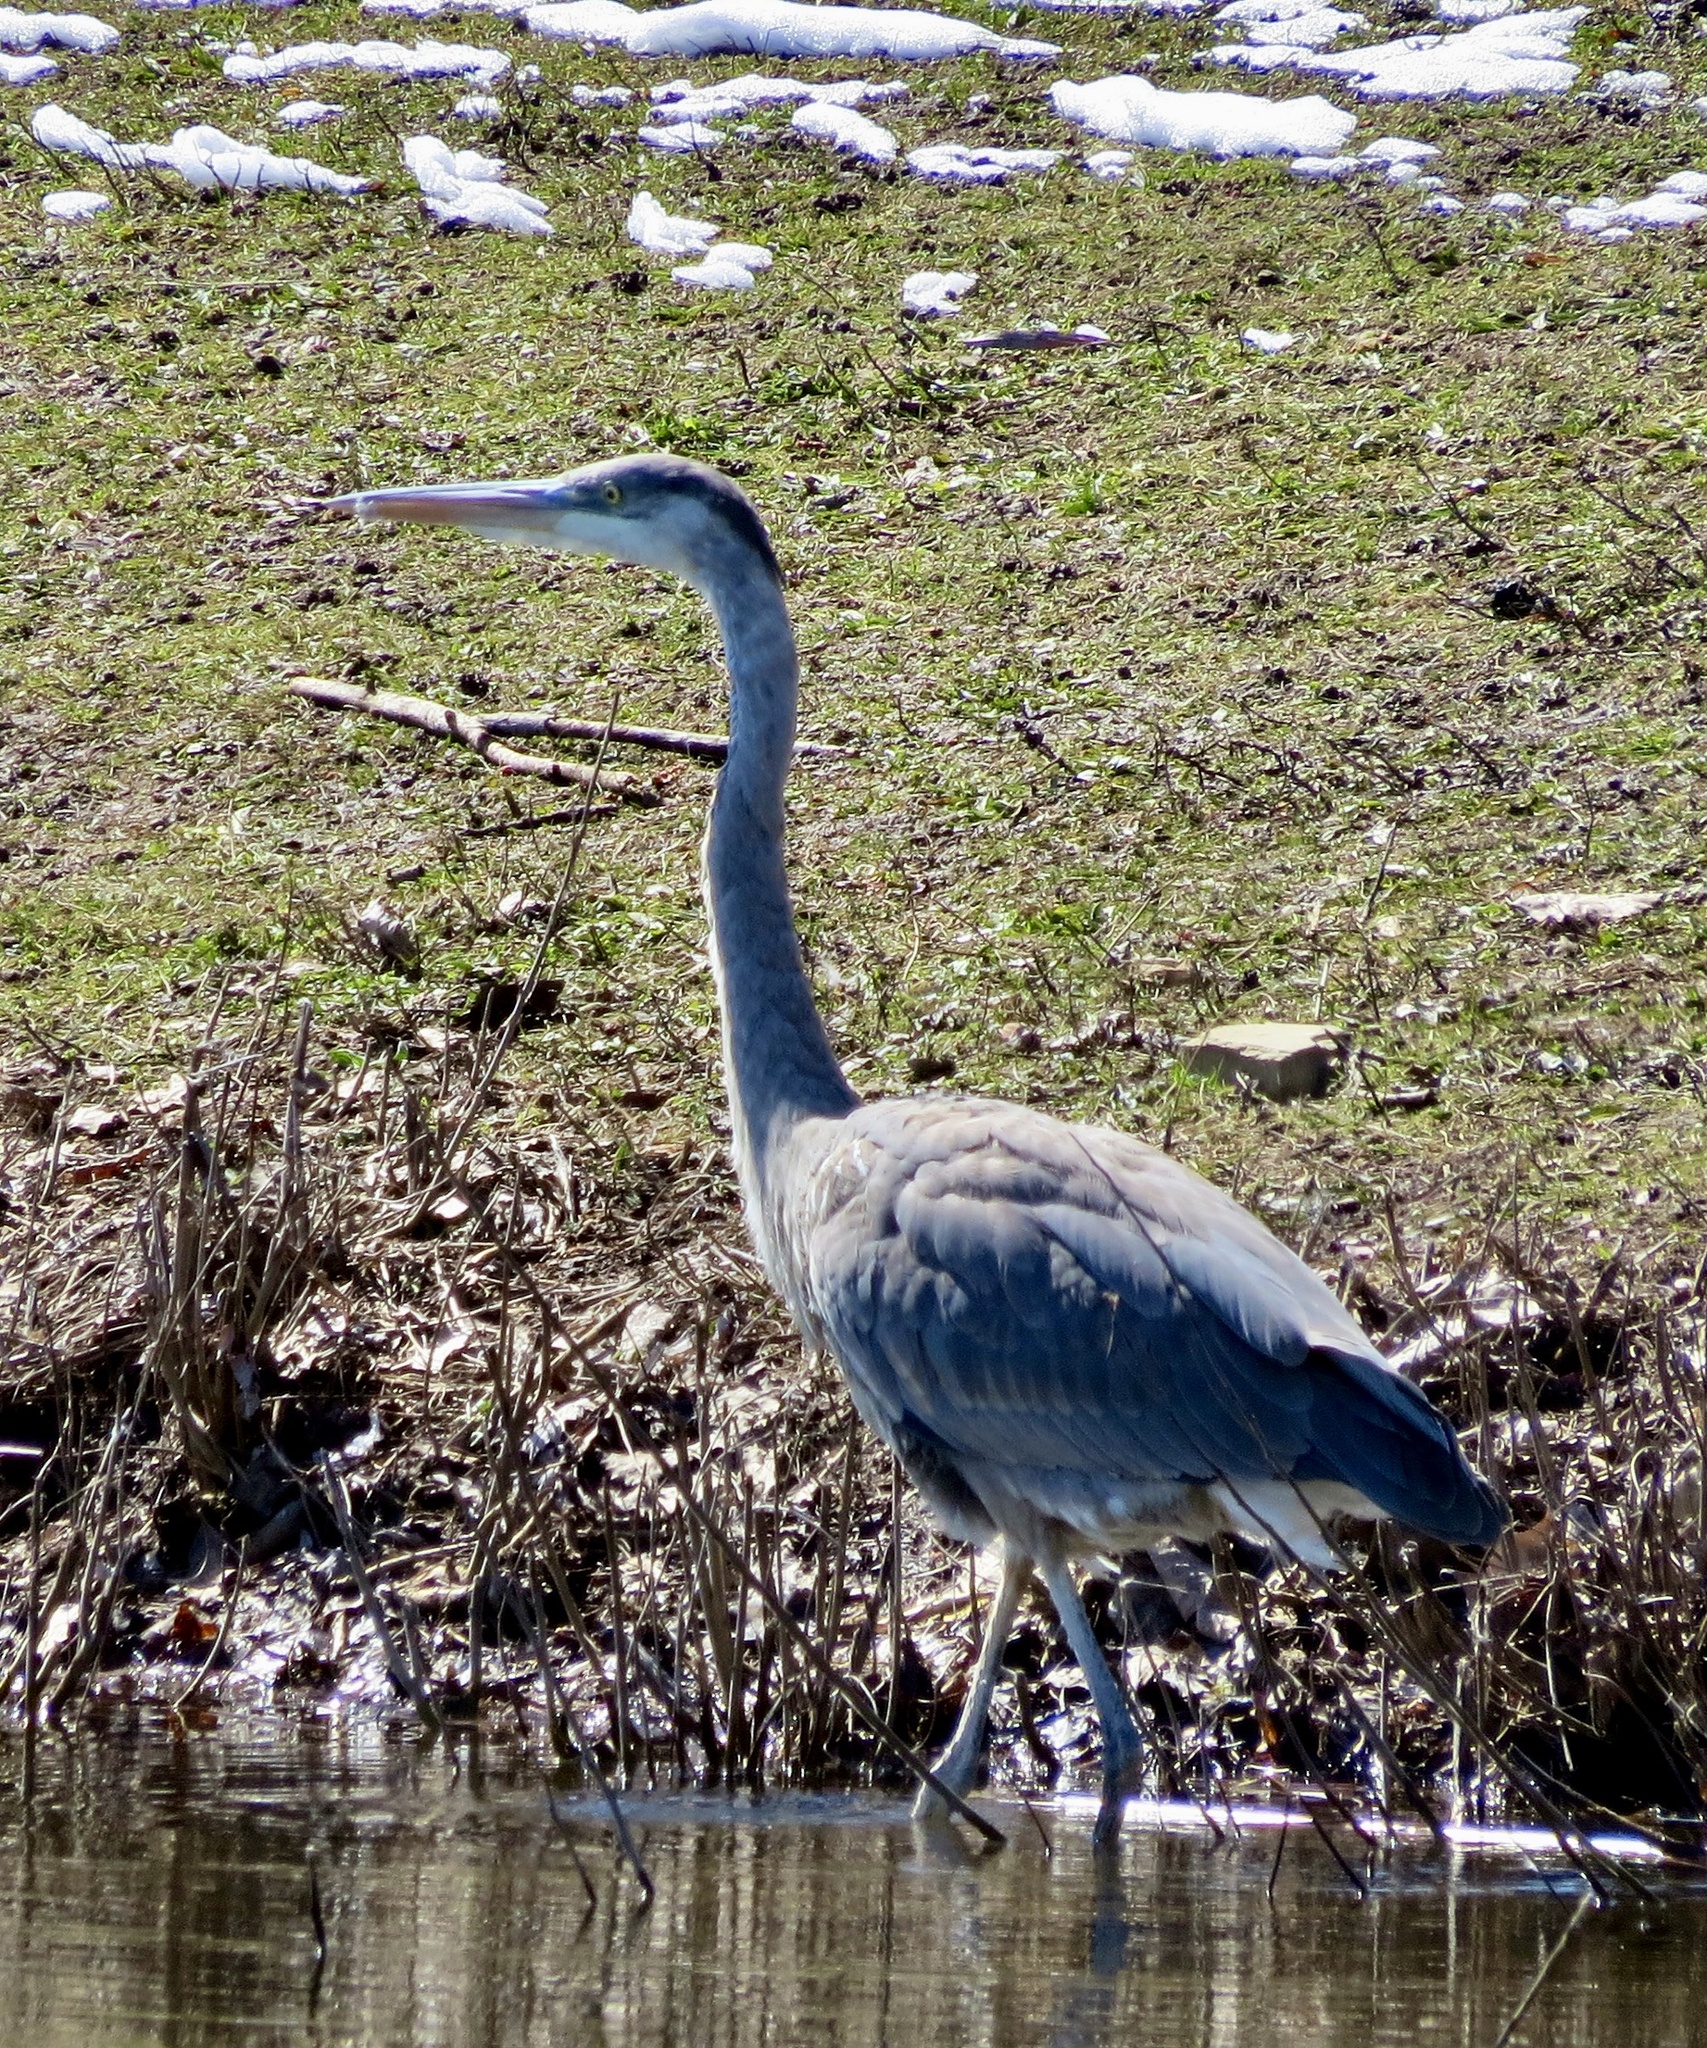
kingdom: Animalia
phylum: Chordata
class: Aves
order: Pelecaniformes
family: Ardeidae
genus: Ardea
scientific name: Ardea herodias
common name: Great blue heron
